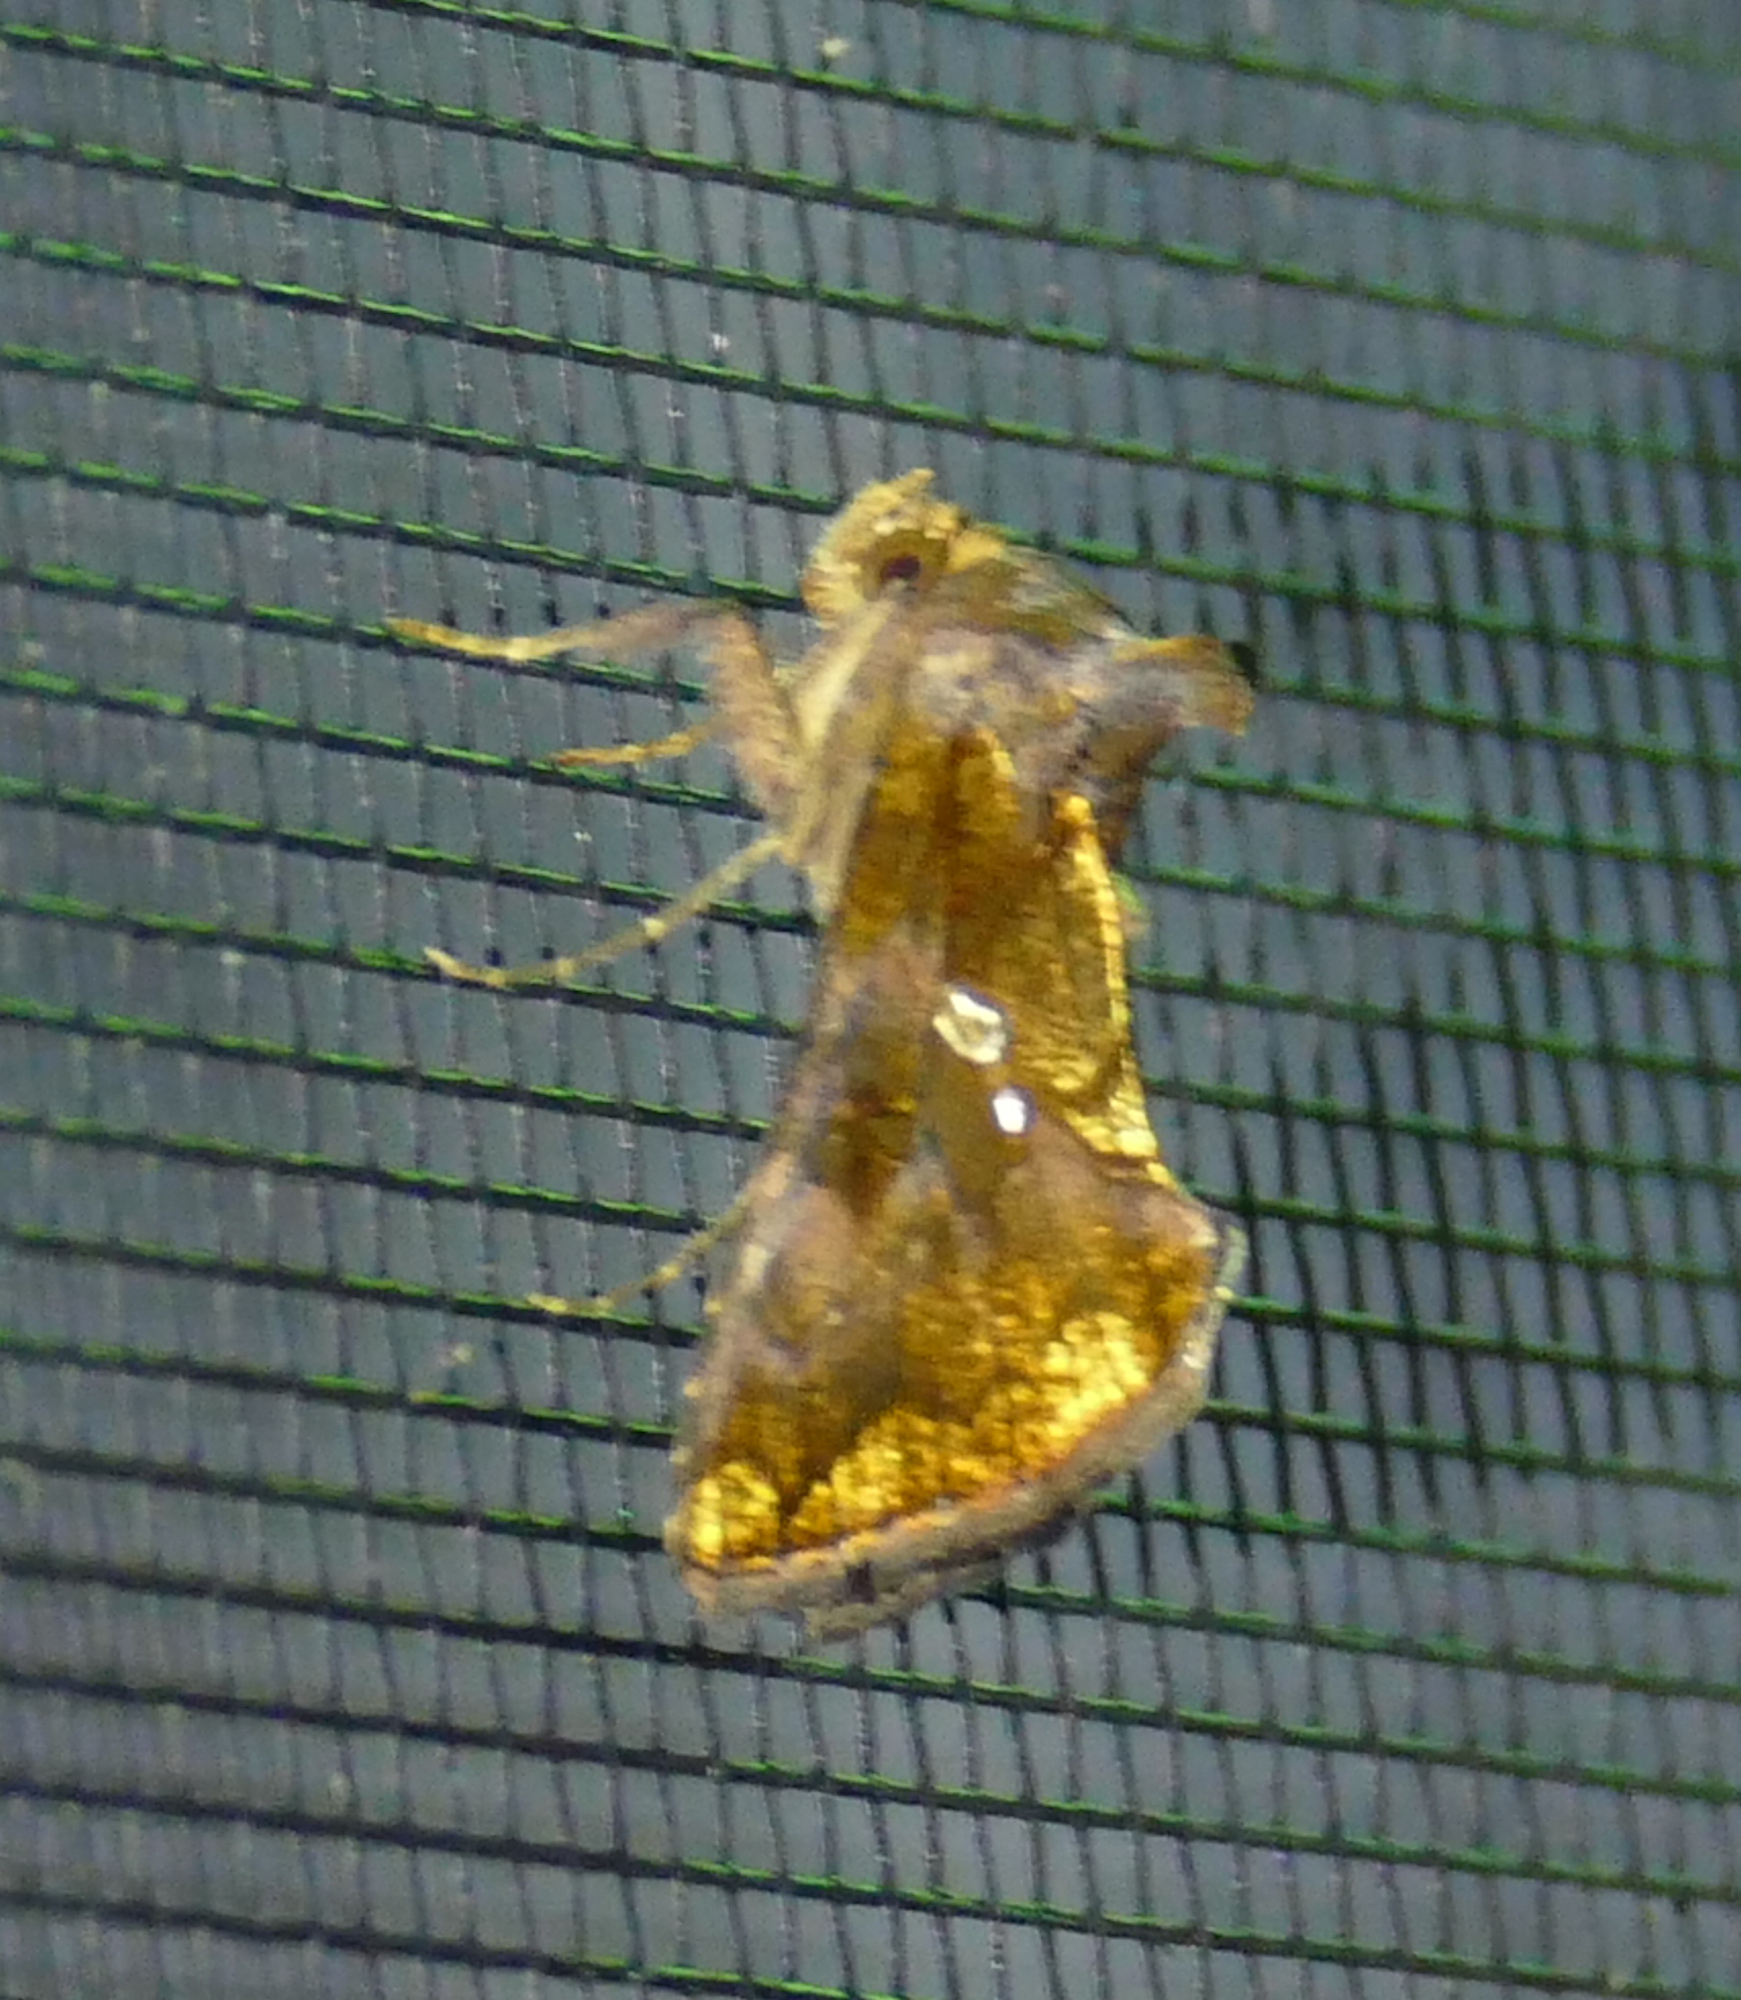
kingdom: Animalia
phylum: Arthropoda
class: Insecta
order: Lepidoptera
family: Noctuidae
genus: Argyrogramma
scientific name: Argyrogramma verruca
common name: Golden looper moth
